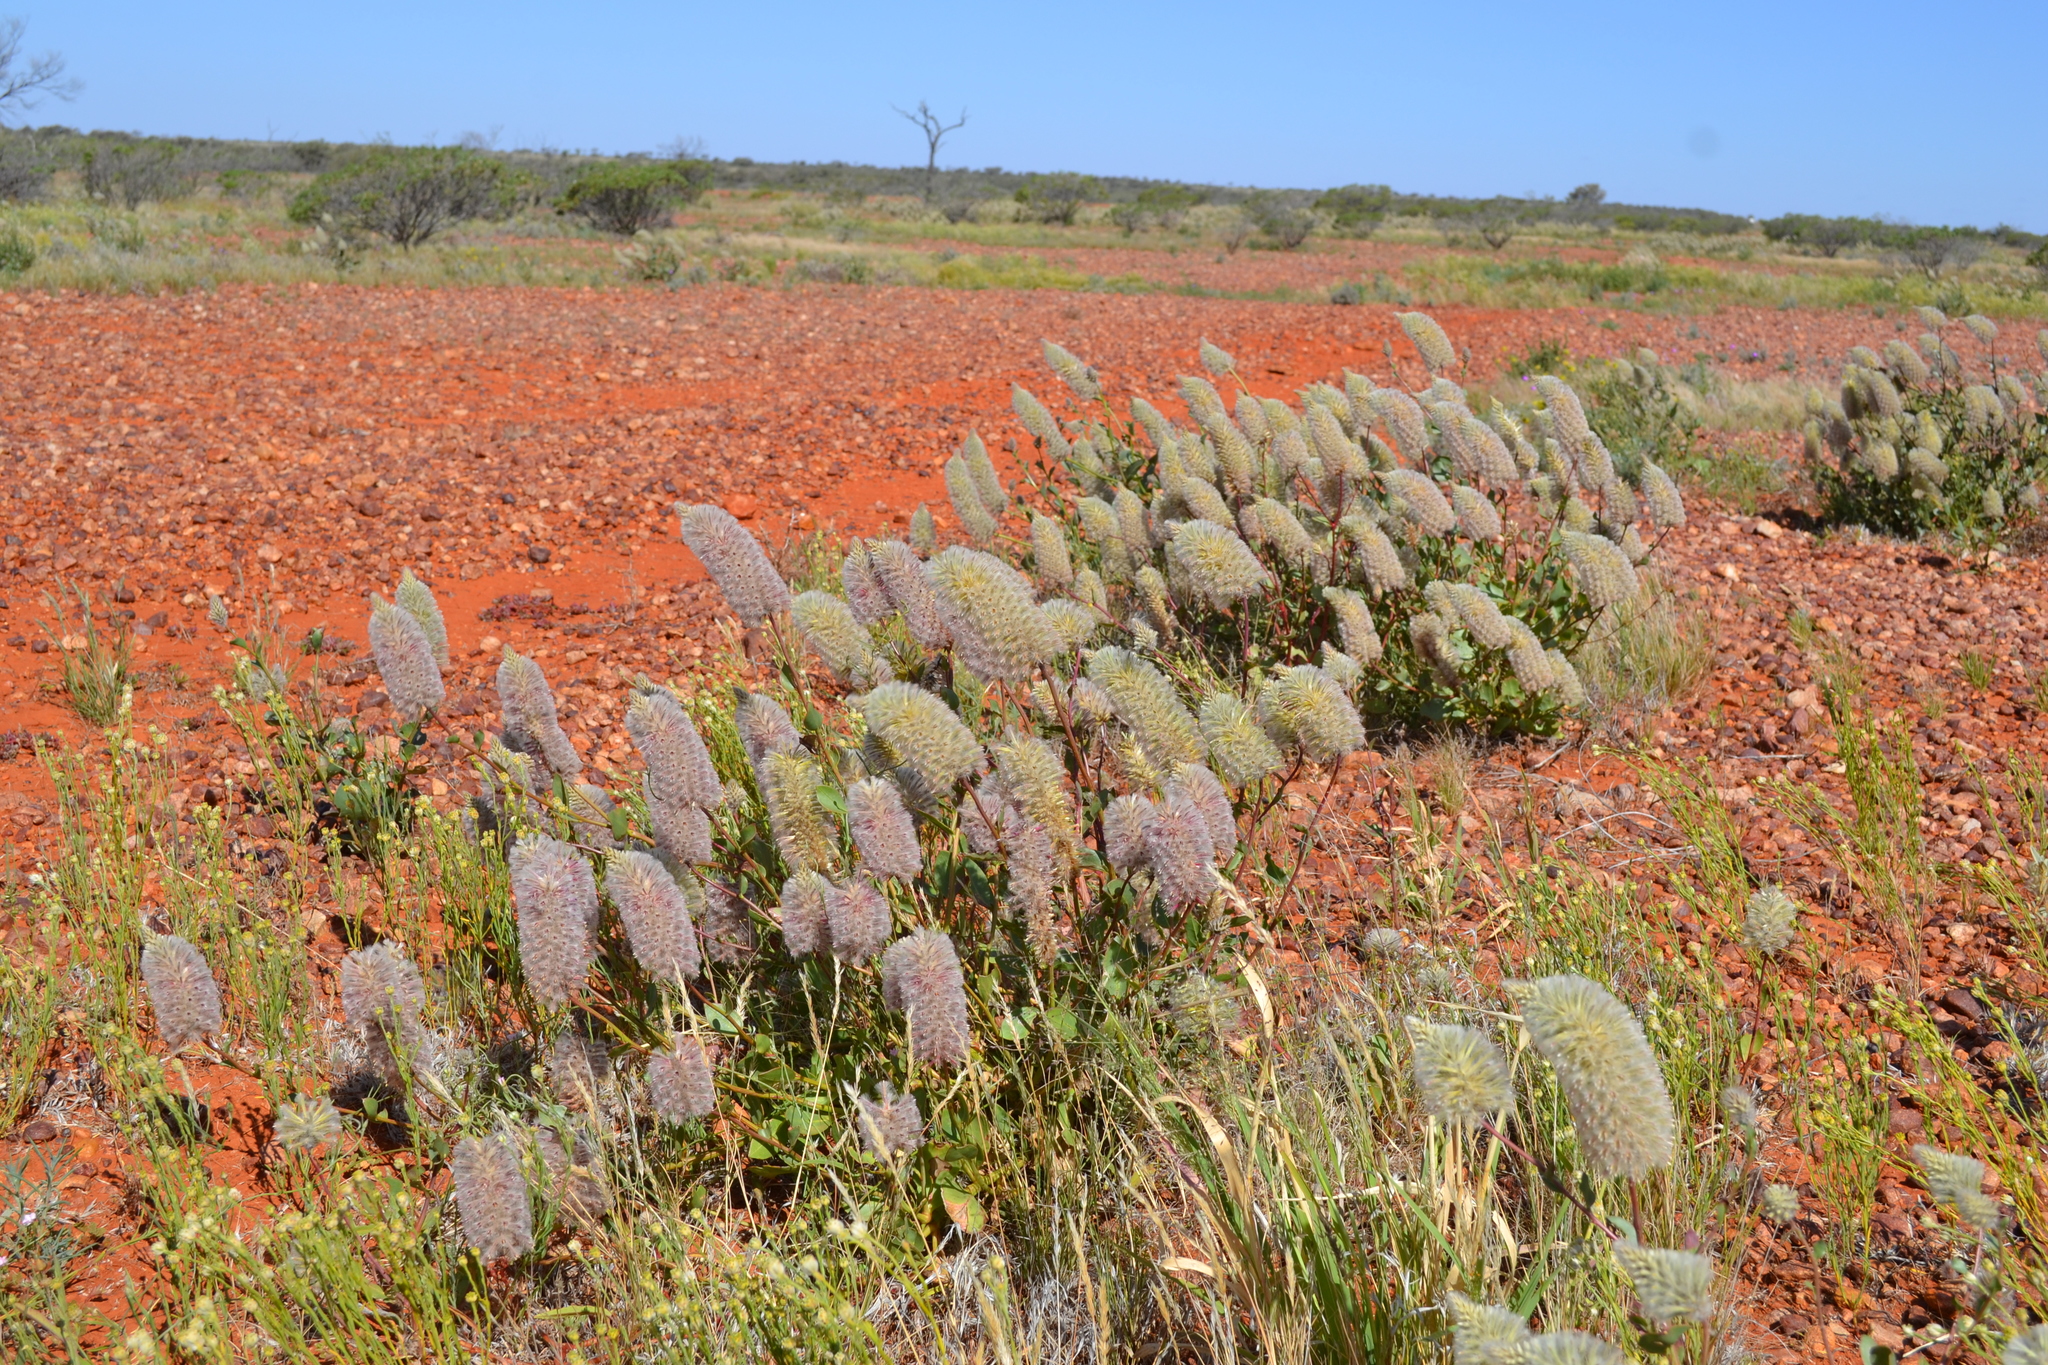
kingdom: Plantae
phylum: Tracheophyta
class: Magnoliopsida
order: Caryophyllales
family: Amaranthaceae
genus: Ptilotus
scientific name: Ptilotus nobilis
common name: Regal-foxtail
